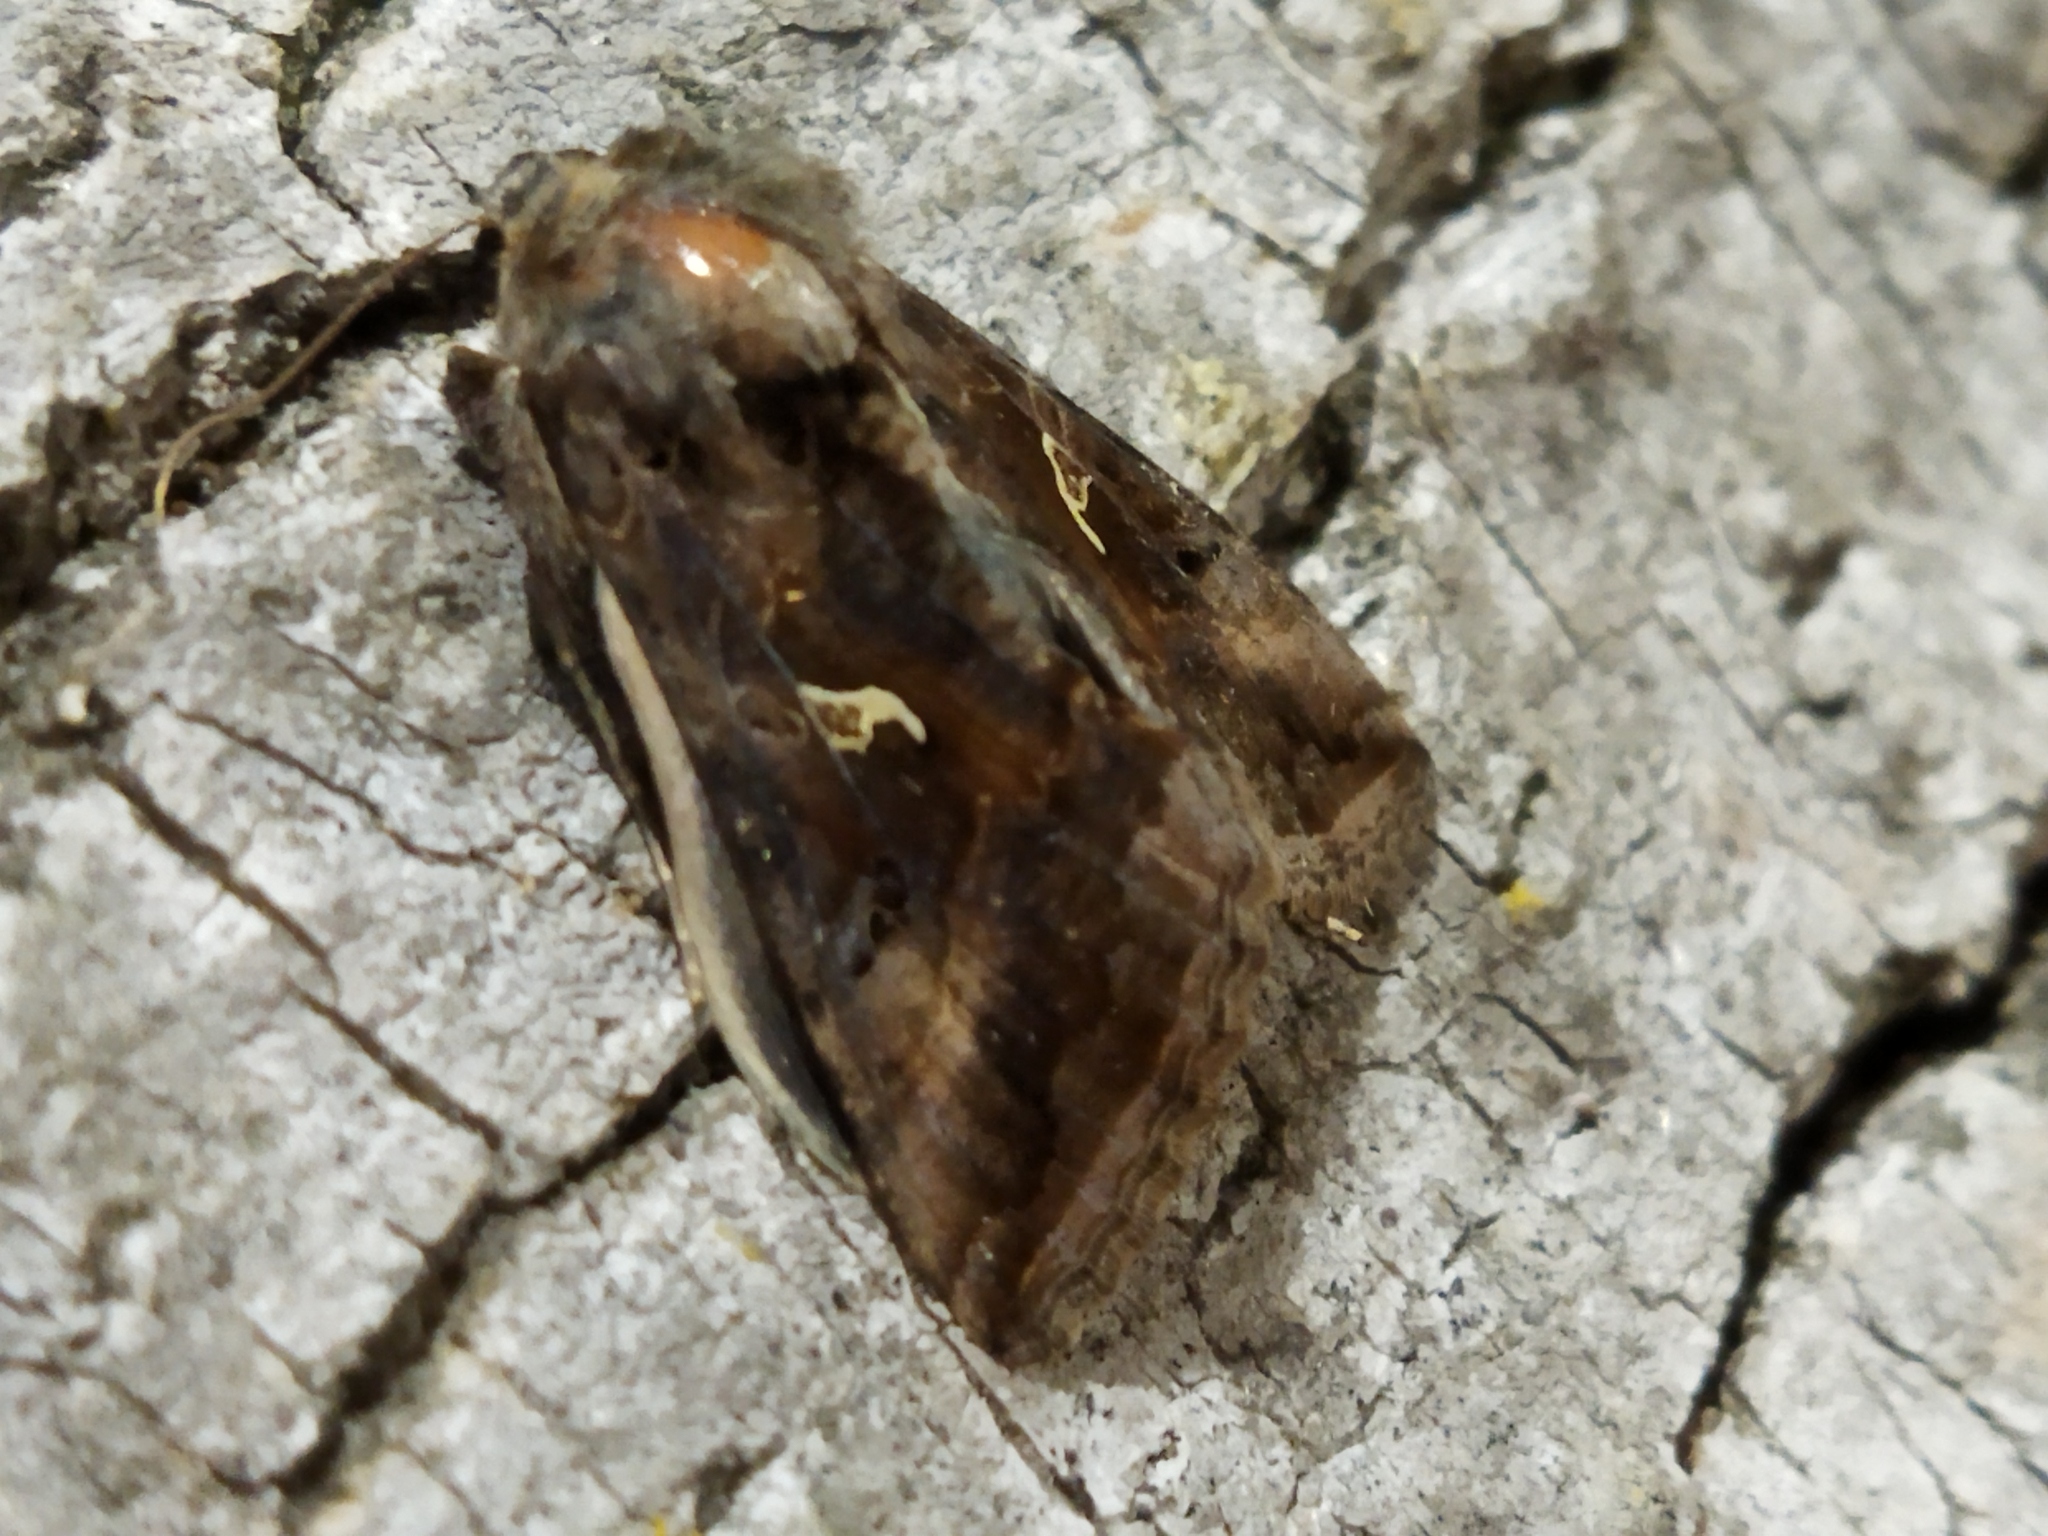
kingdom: Animalia
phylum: Arthropoda
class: Insecta
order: Lepidoptera
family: Noctuidae
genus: Autographa
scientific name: Autographa gamma
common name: Silver y
